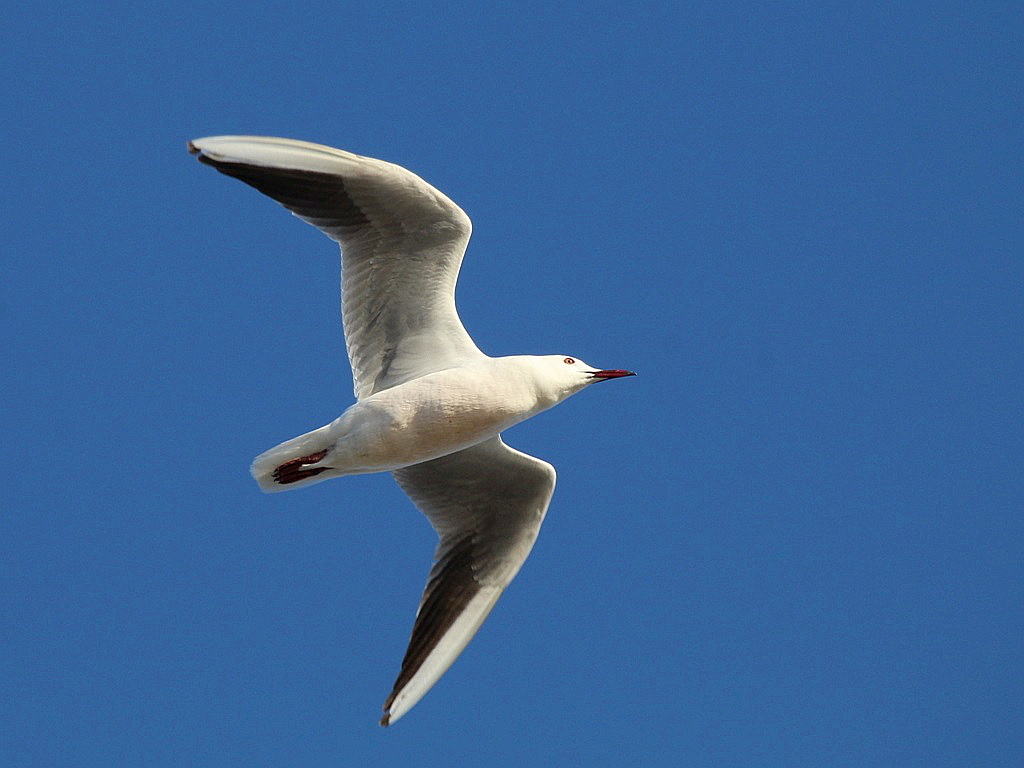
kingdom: Animalia
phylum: Chordata
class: Aves
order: Charadriiformes
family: Laridae
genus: Chroicocephalus
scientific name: Chroicocephalus genei
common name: Slender-billed gull
